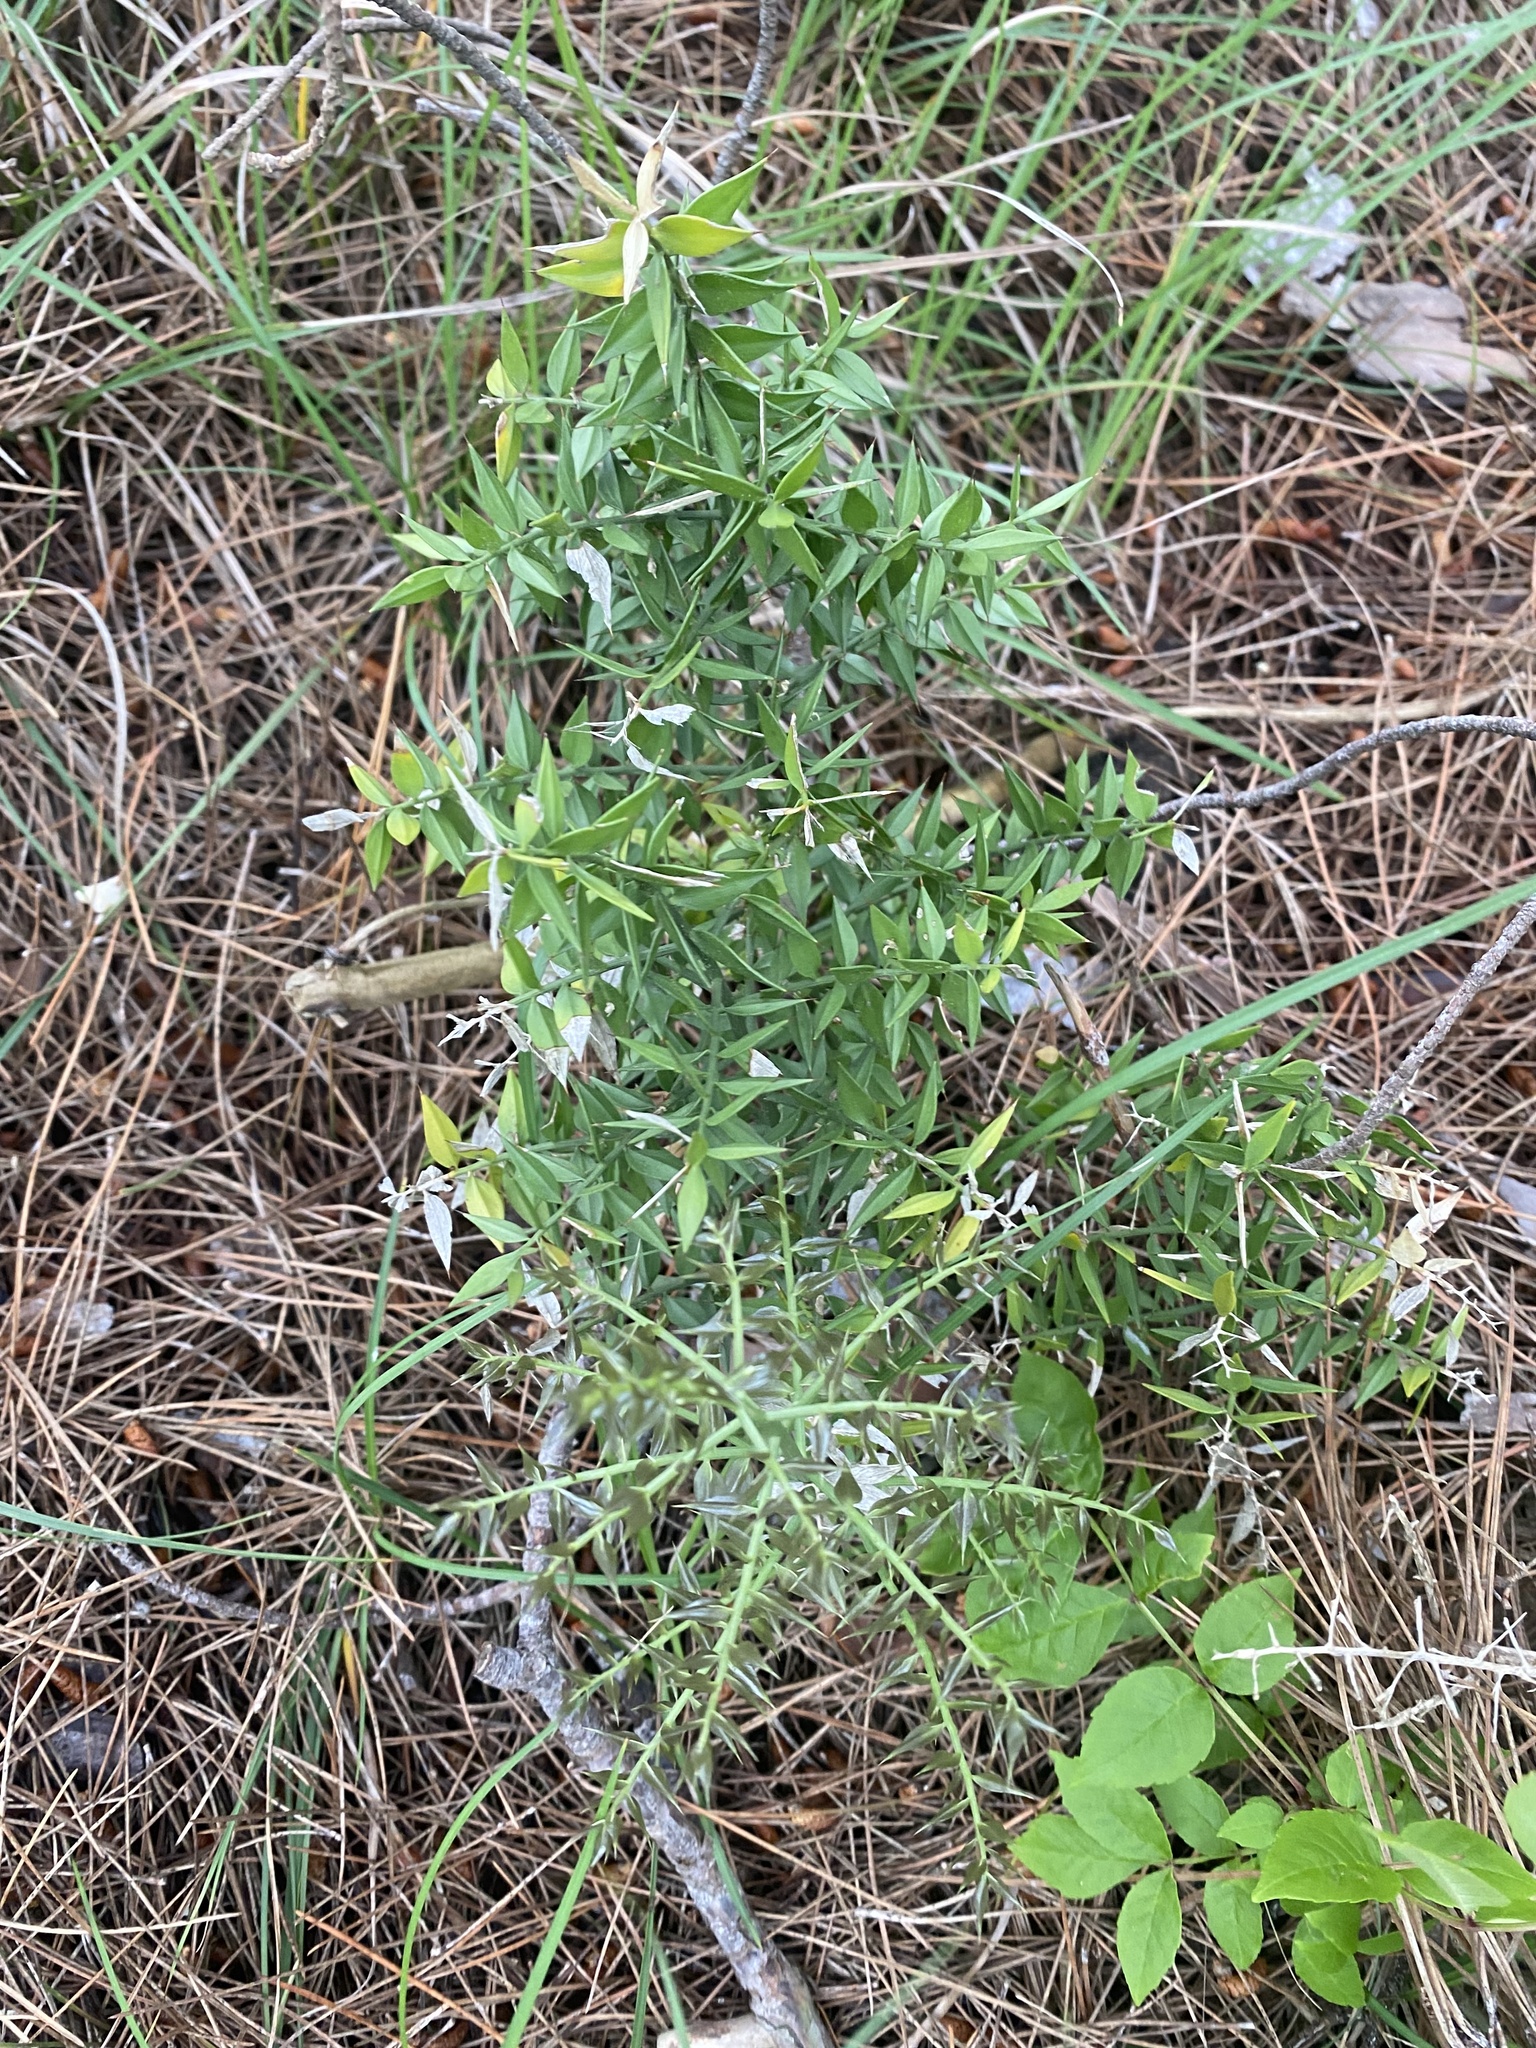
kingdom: Plantae
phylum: Tracheophyta
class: Liliopsida
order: Asparagales
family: Asparagaceae
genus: Ruscus
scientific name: Ruscus aculeatus
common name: Butcher's-broom
